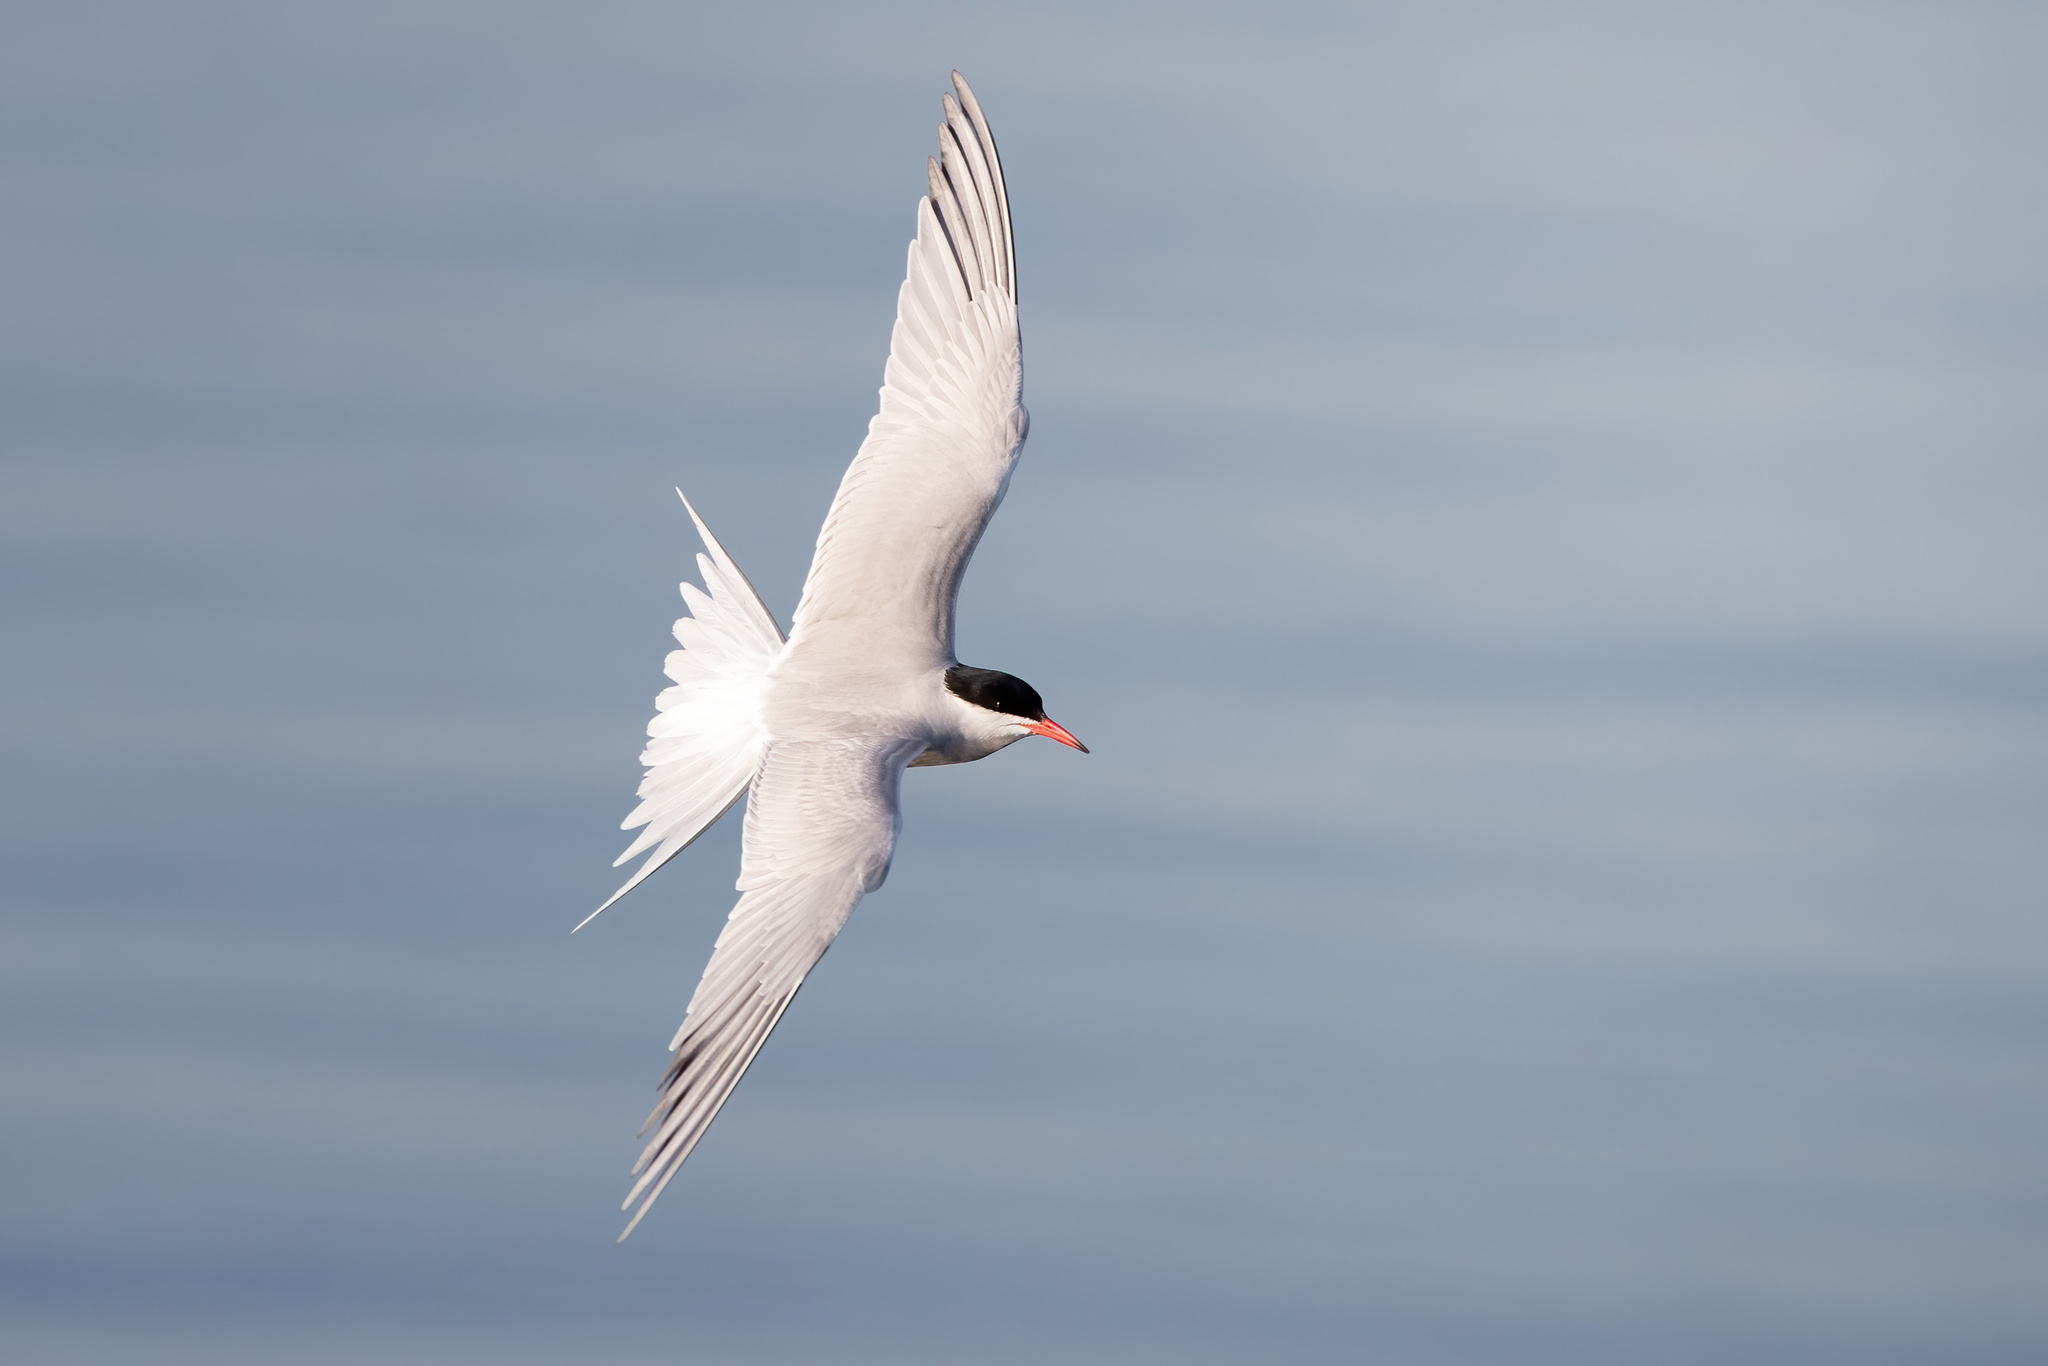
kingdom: Animalia
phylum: Chordata
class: Aves
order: Charadriiformes
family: Laridae
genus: Sterna
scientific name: Sterna hirundo
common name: Common tern
